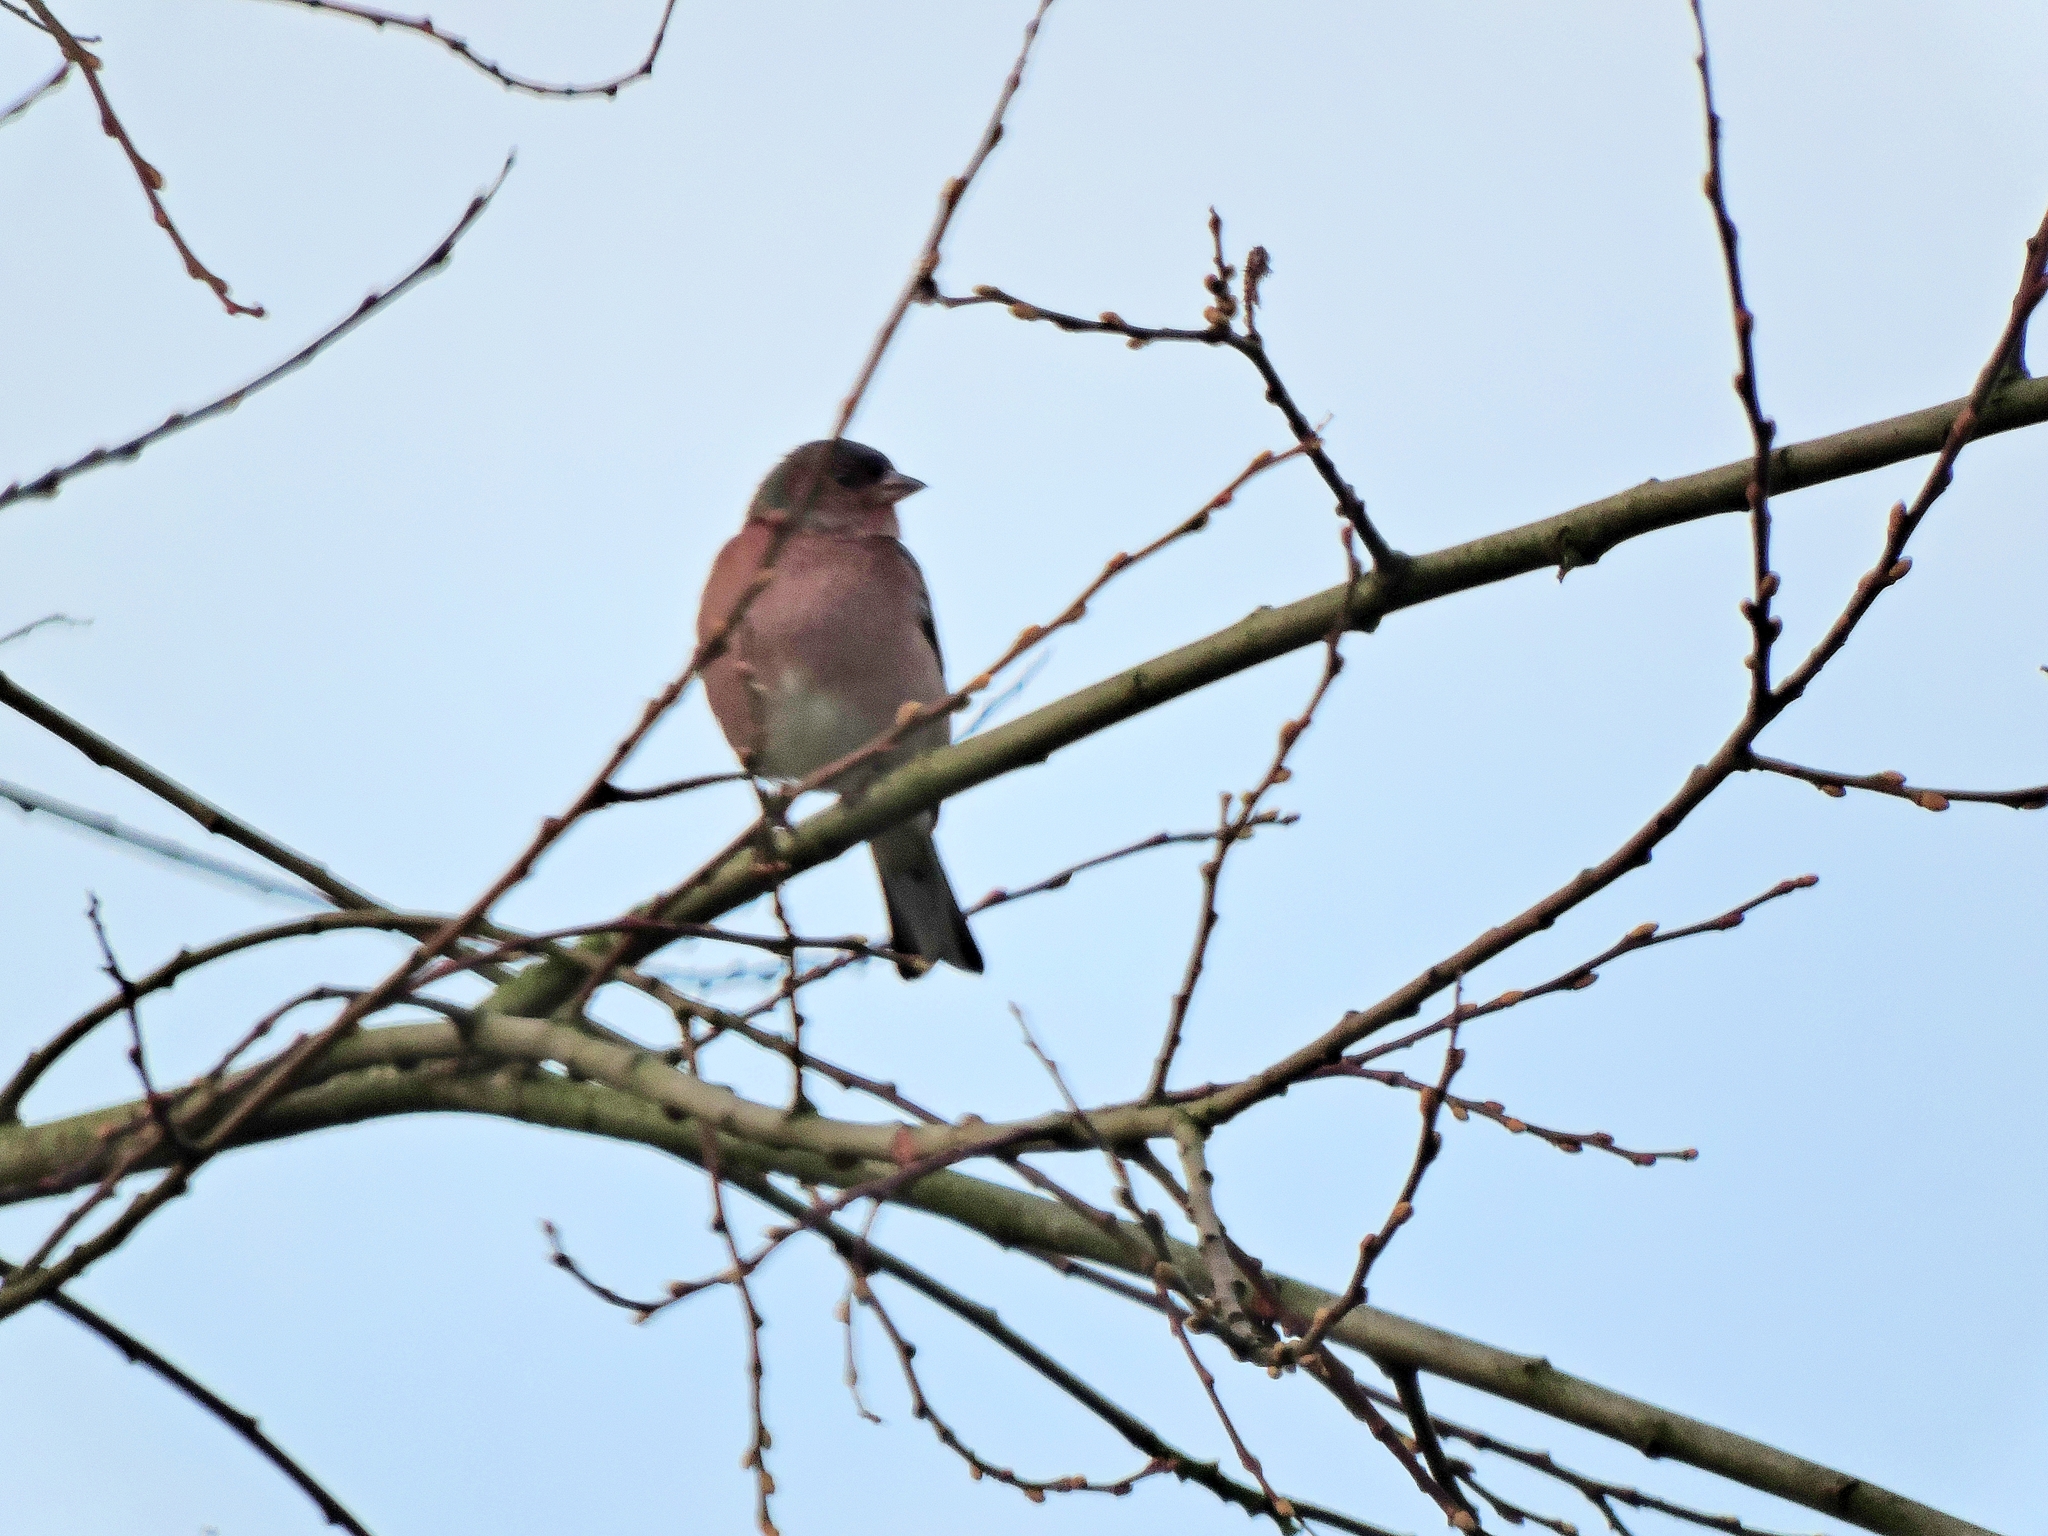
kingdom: Animalia
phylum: Chordata
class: Aves
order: Passeriformes
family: Fringillidae
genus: Fringilla
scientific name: Fringilla coelebs
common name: Common chaffinch
